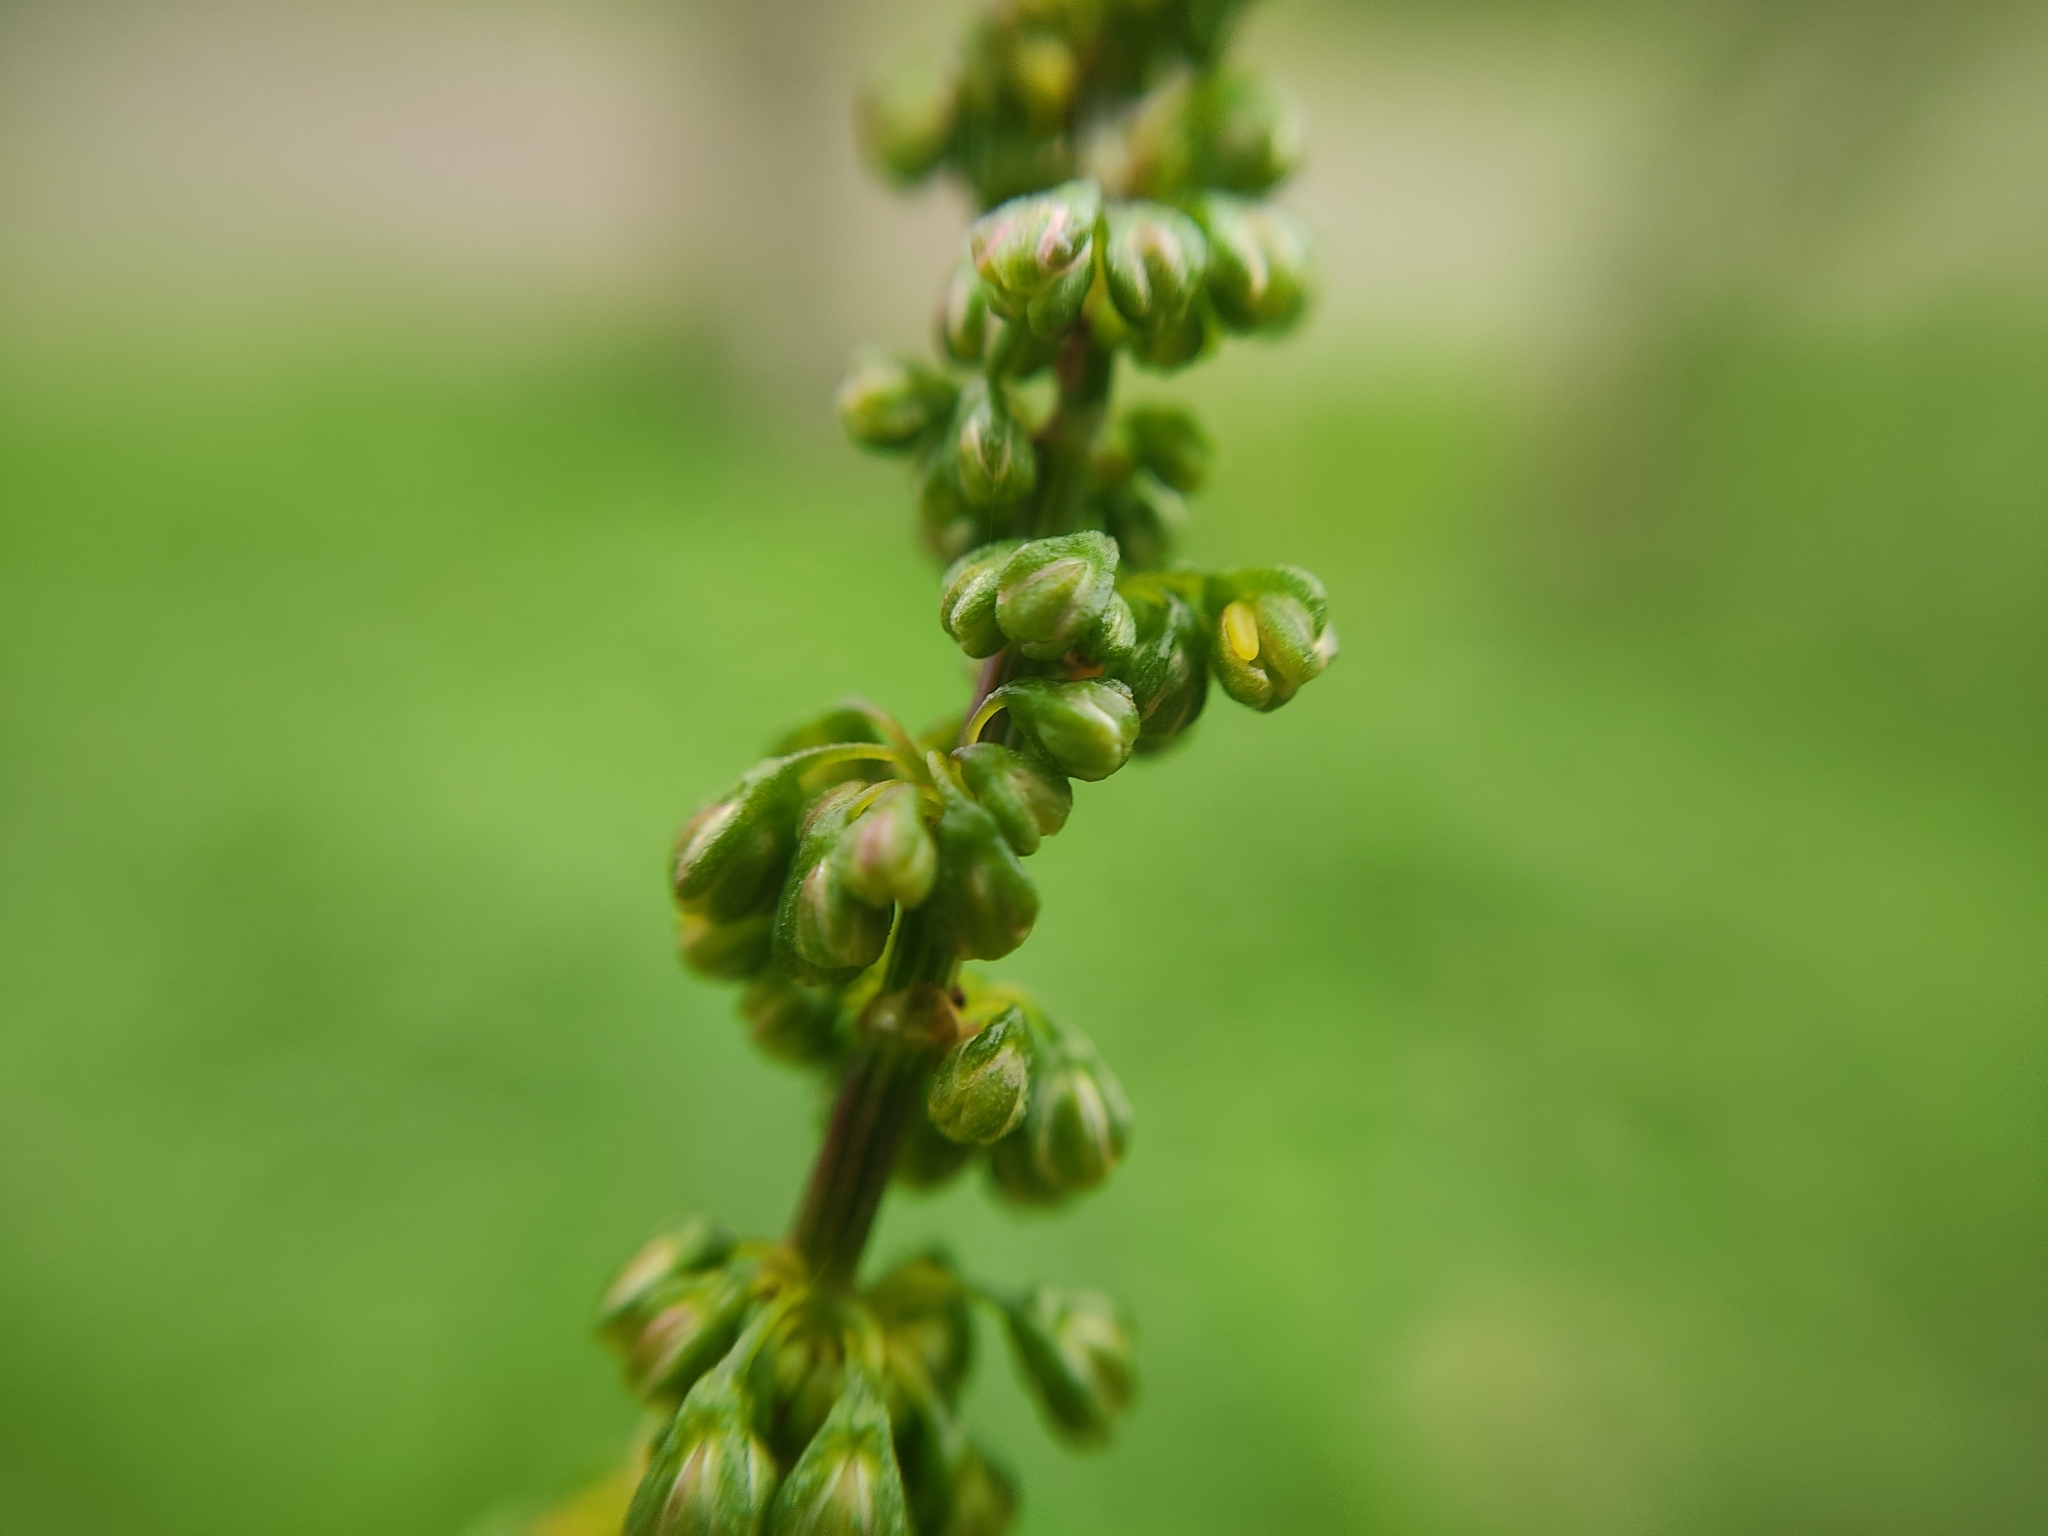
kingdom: Plantae
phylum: Tracheophyta
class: Magnoliopsida
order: Caryophyllales
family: Polygonaceae
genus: Rumex
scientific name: Rumex obtusifolius
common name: Bitter dock
